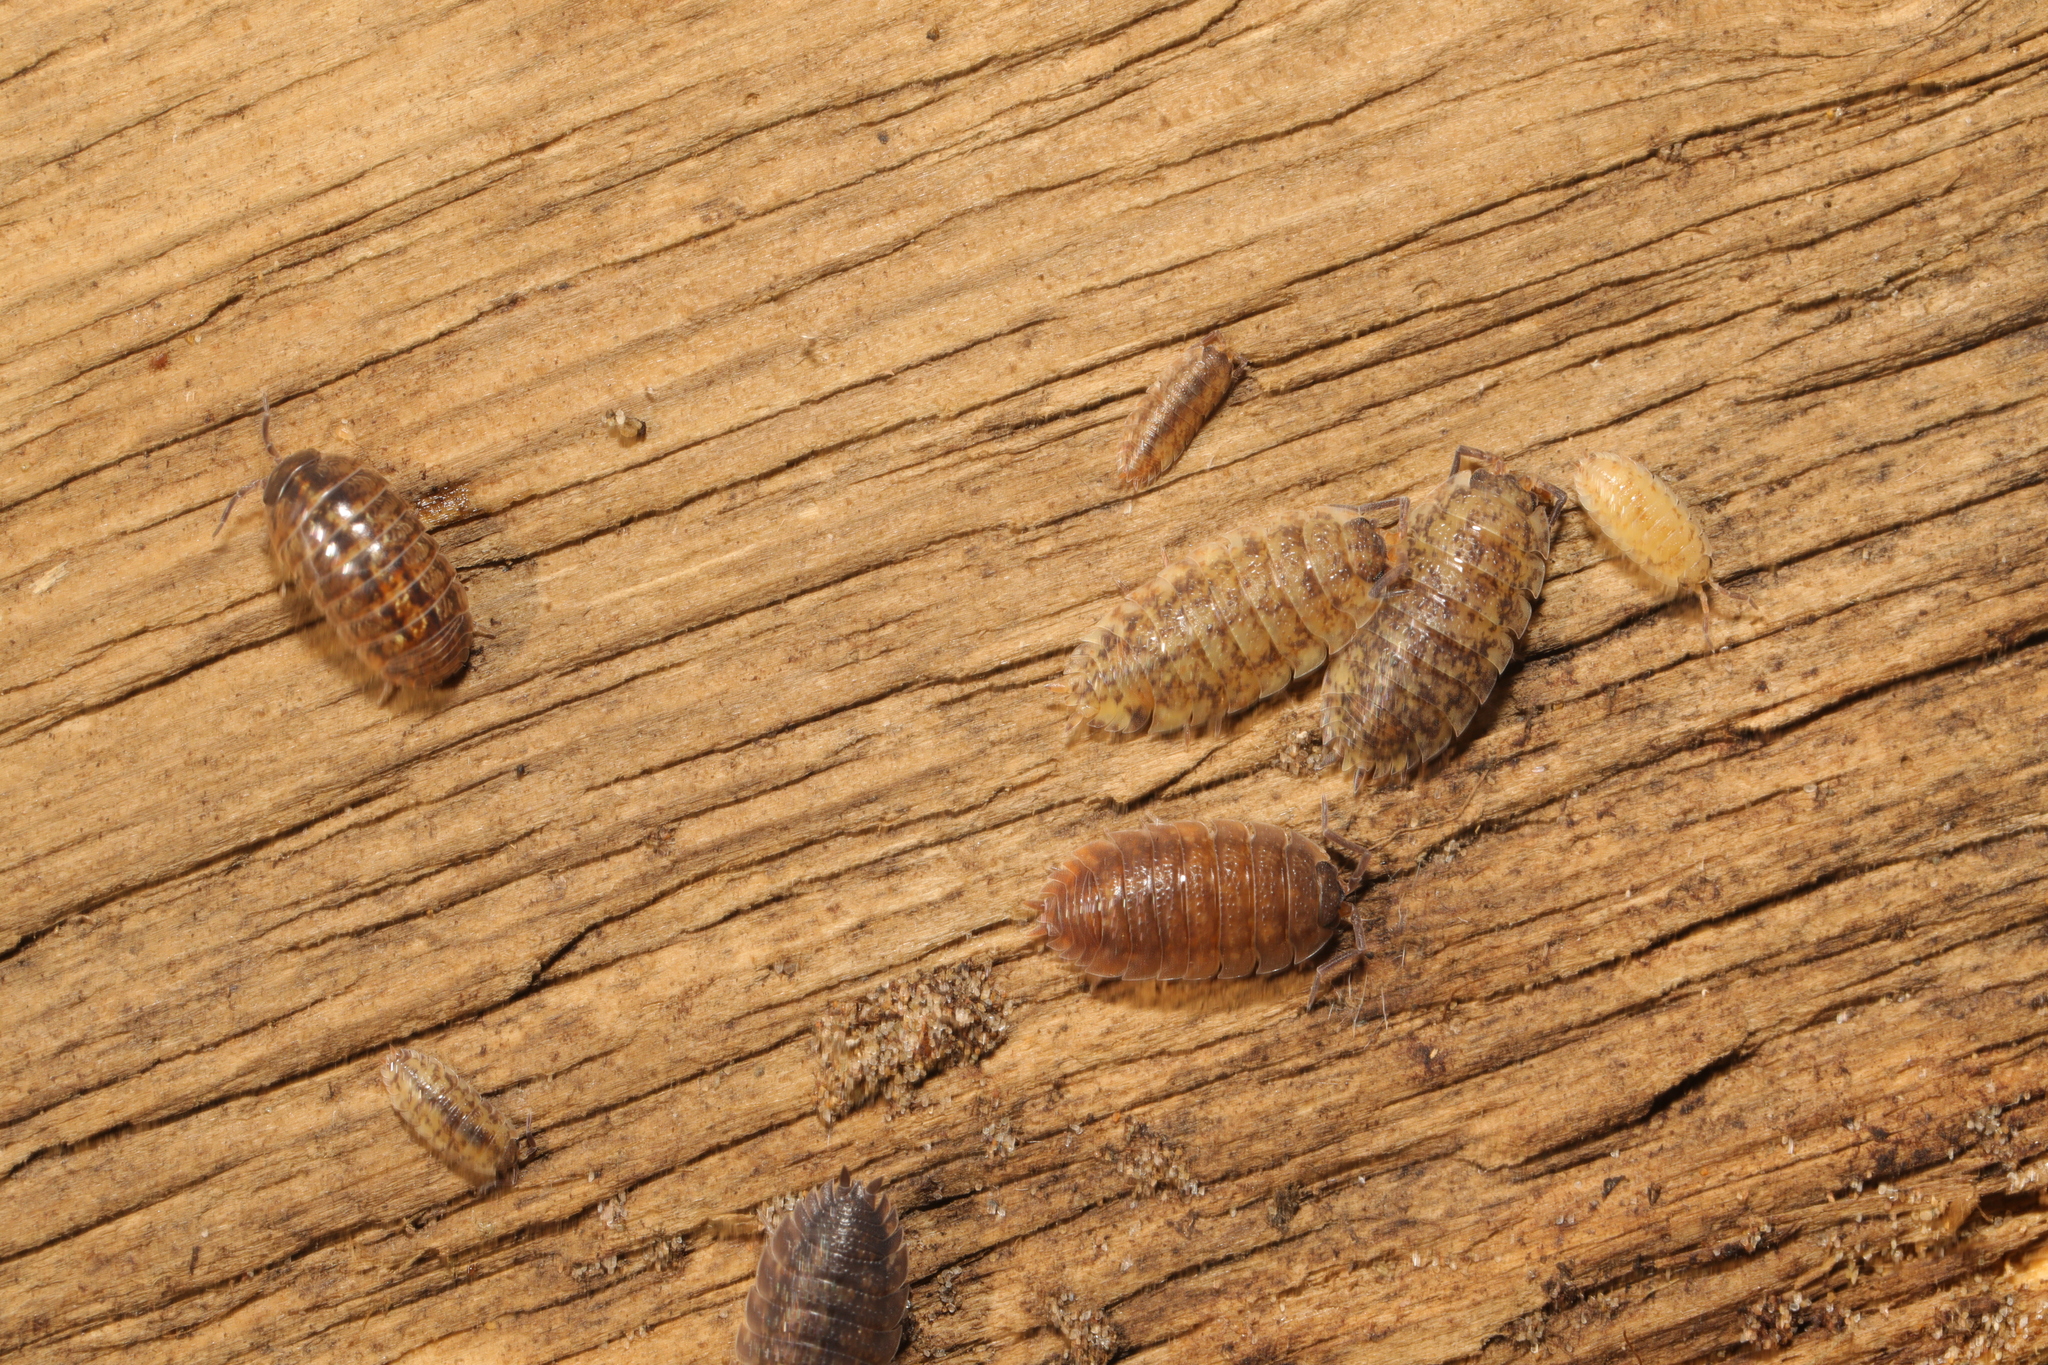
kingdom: Animalia
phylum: Arthropoda
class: Malacostraca
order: Isopoda
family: Porcellionidae
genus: Porcellio
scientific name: Porcellio scaber
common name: Common rough woodlouse
